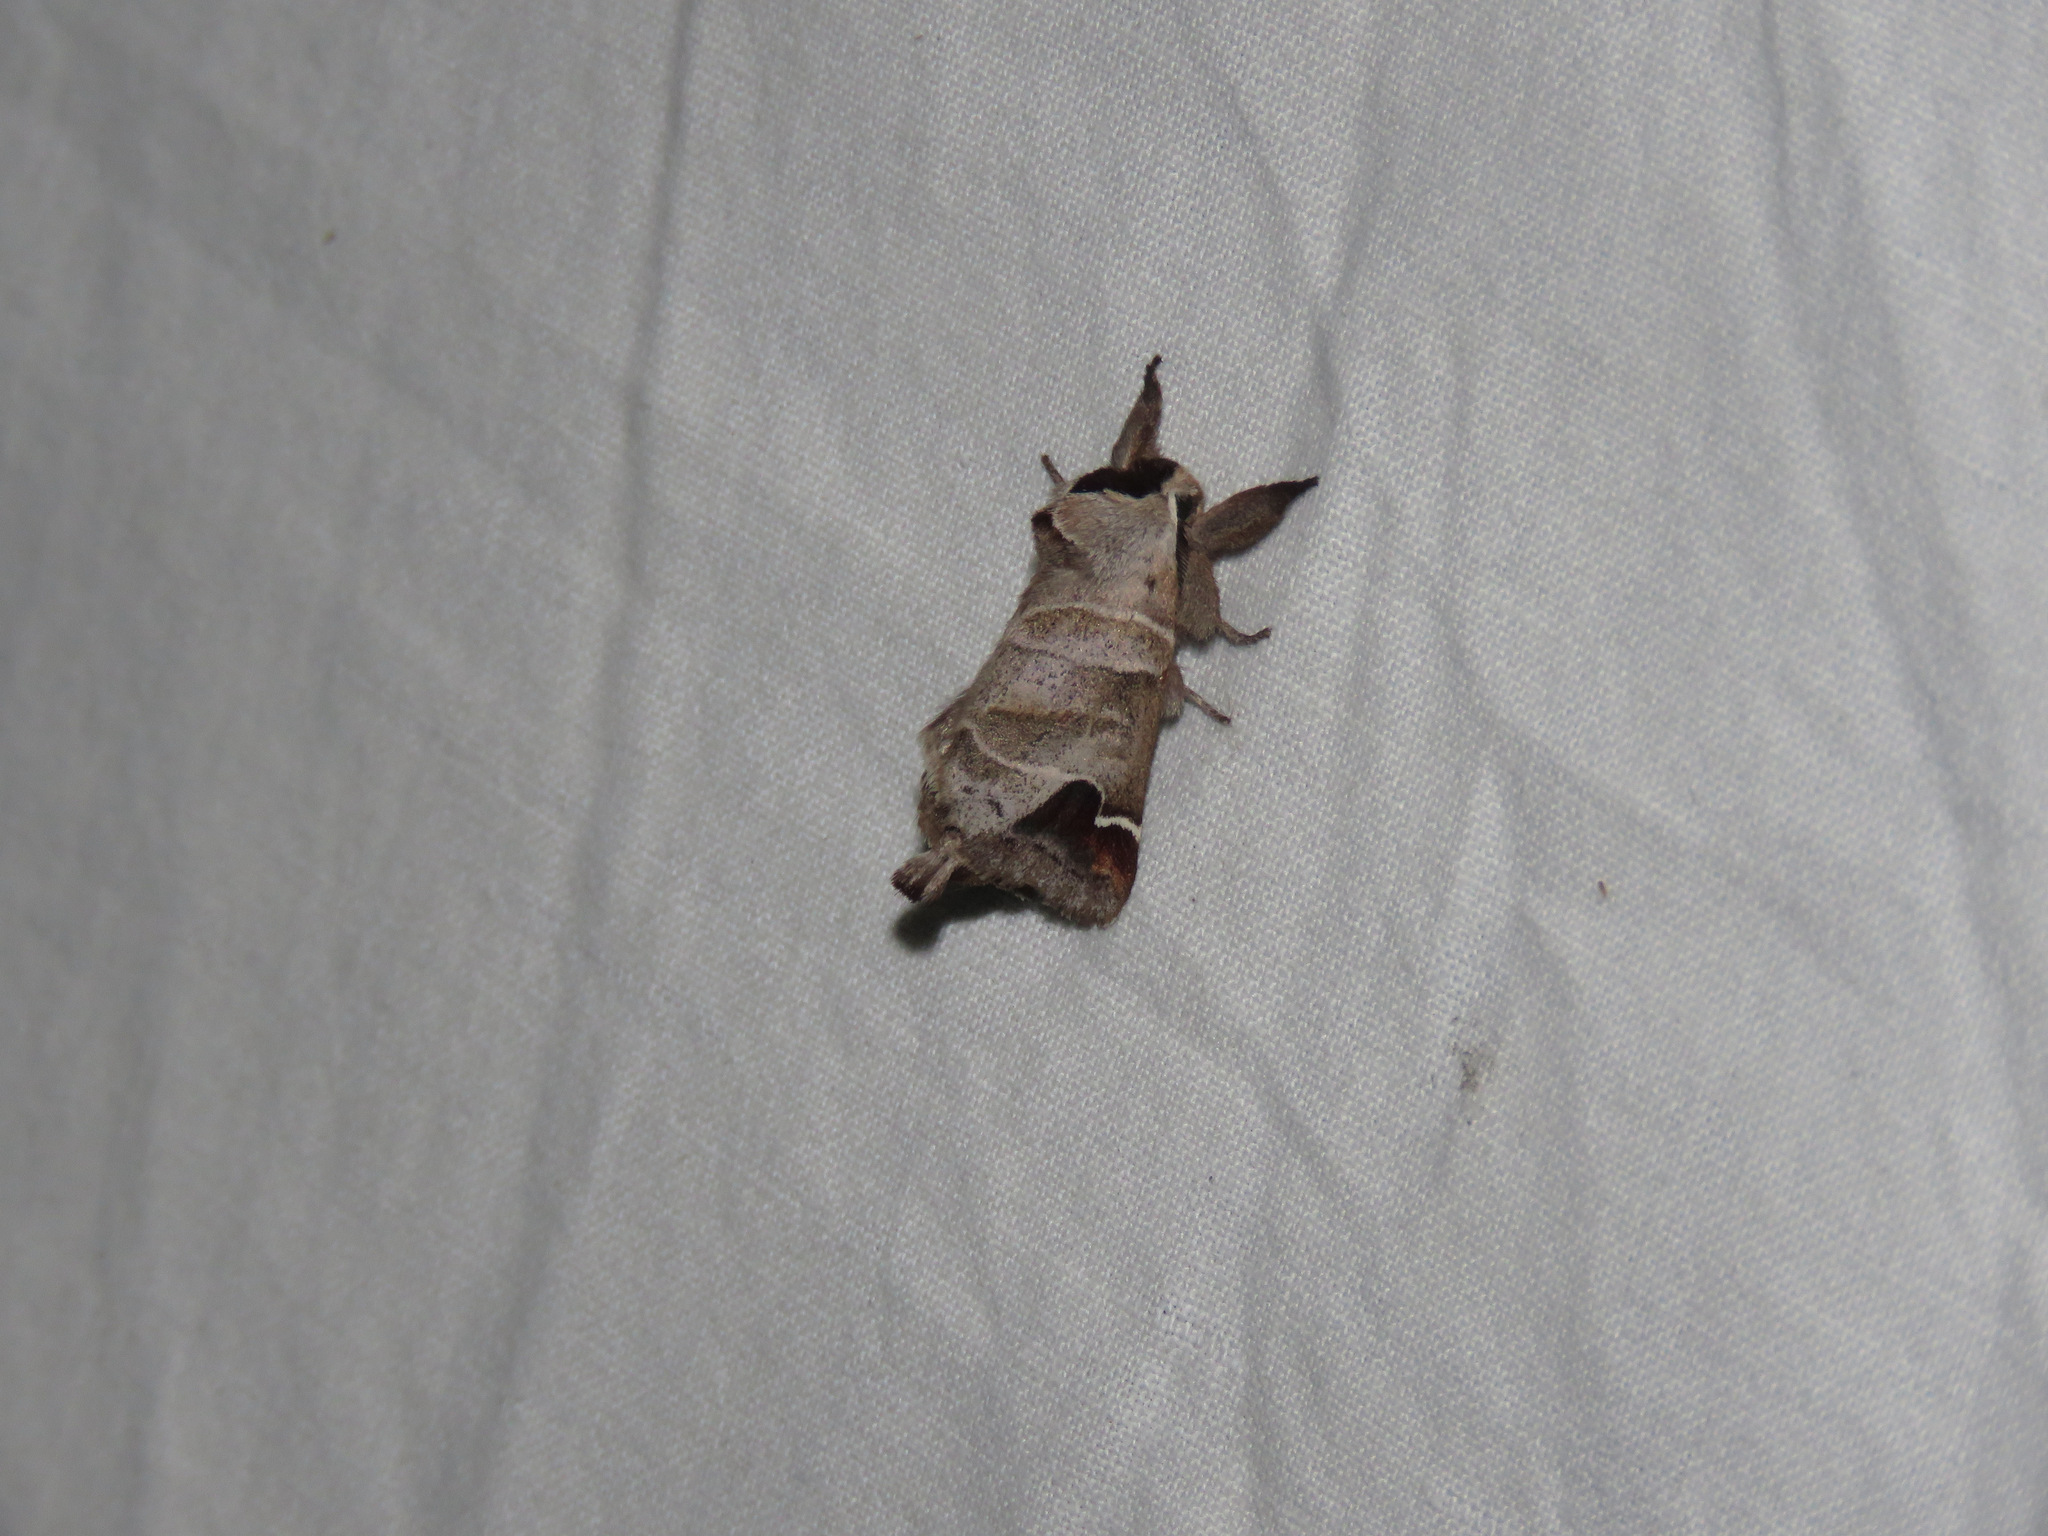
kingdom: Animalia
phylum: Arthropoda
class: Insecta
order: Lepidoptera
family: Notodontidae
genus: Clostera
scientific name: Clostera albosigma
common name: Sigmoid prominent
